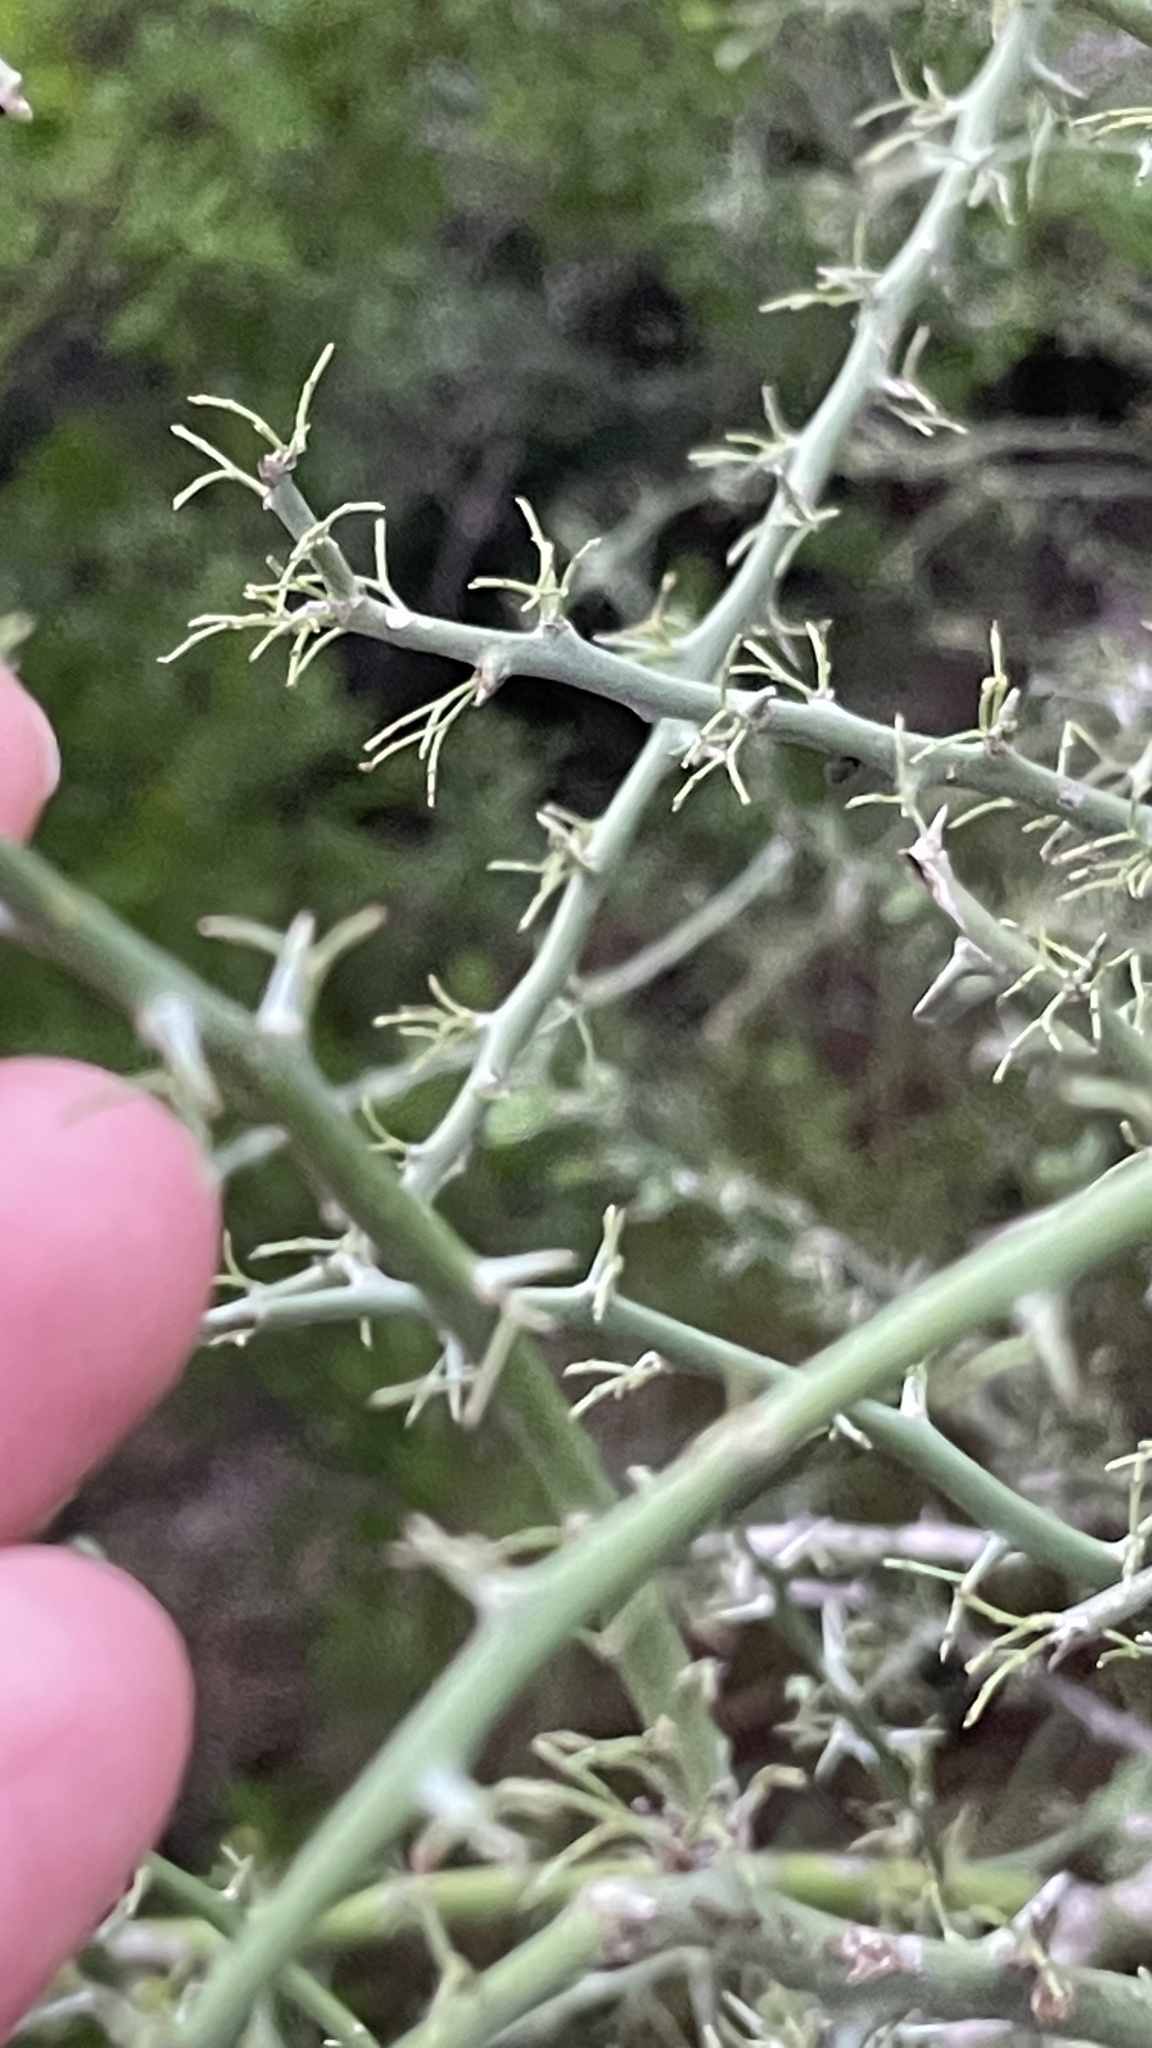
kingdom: Plantae
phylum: Tracheophyta
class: Magnoliopsida
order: Fabales
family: Fabaceae
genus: Parkinsonia
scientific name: Parkinsonia texana
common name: Texas paloverde
